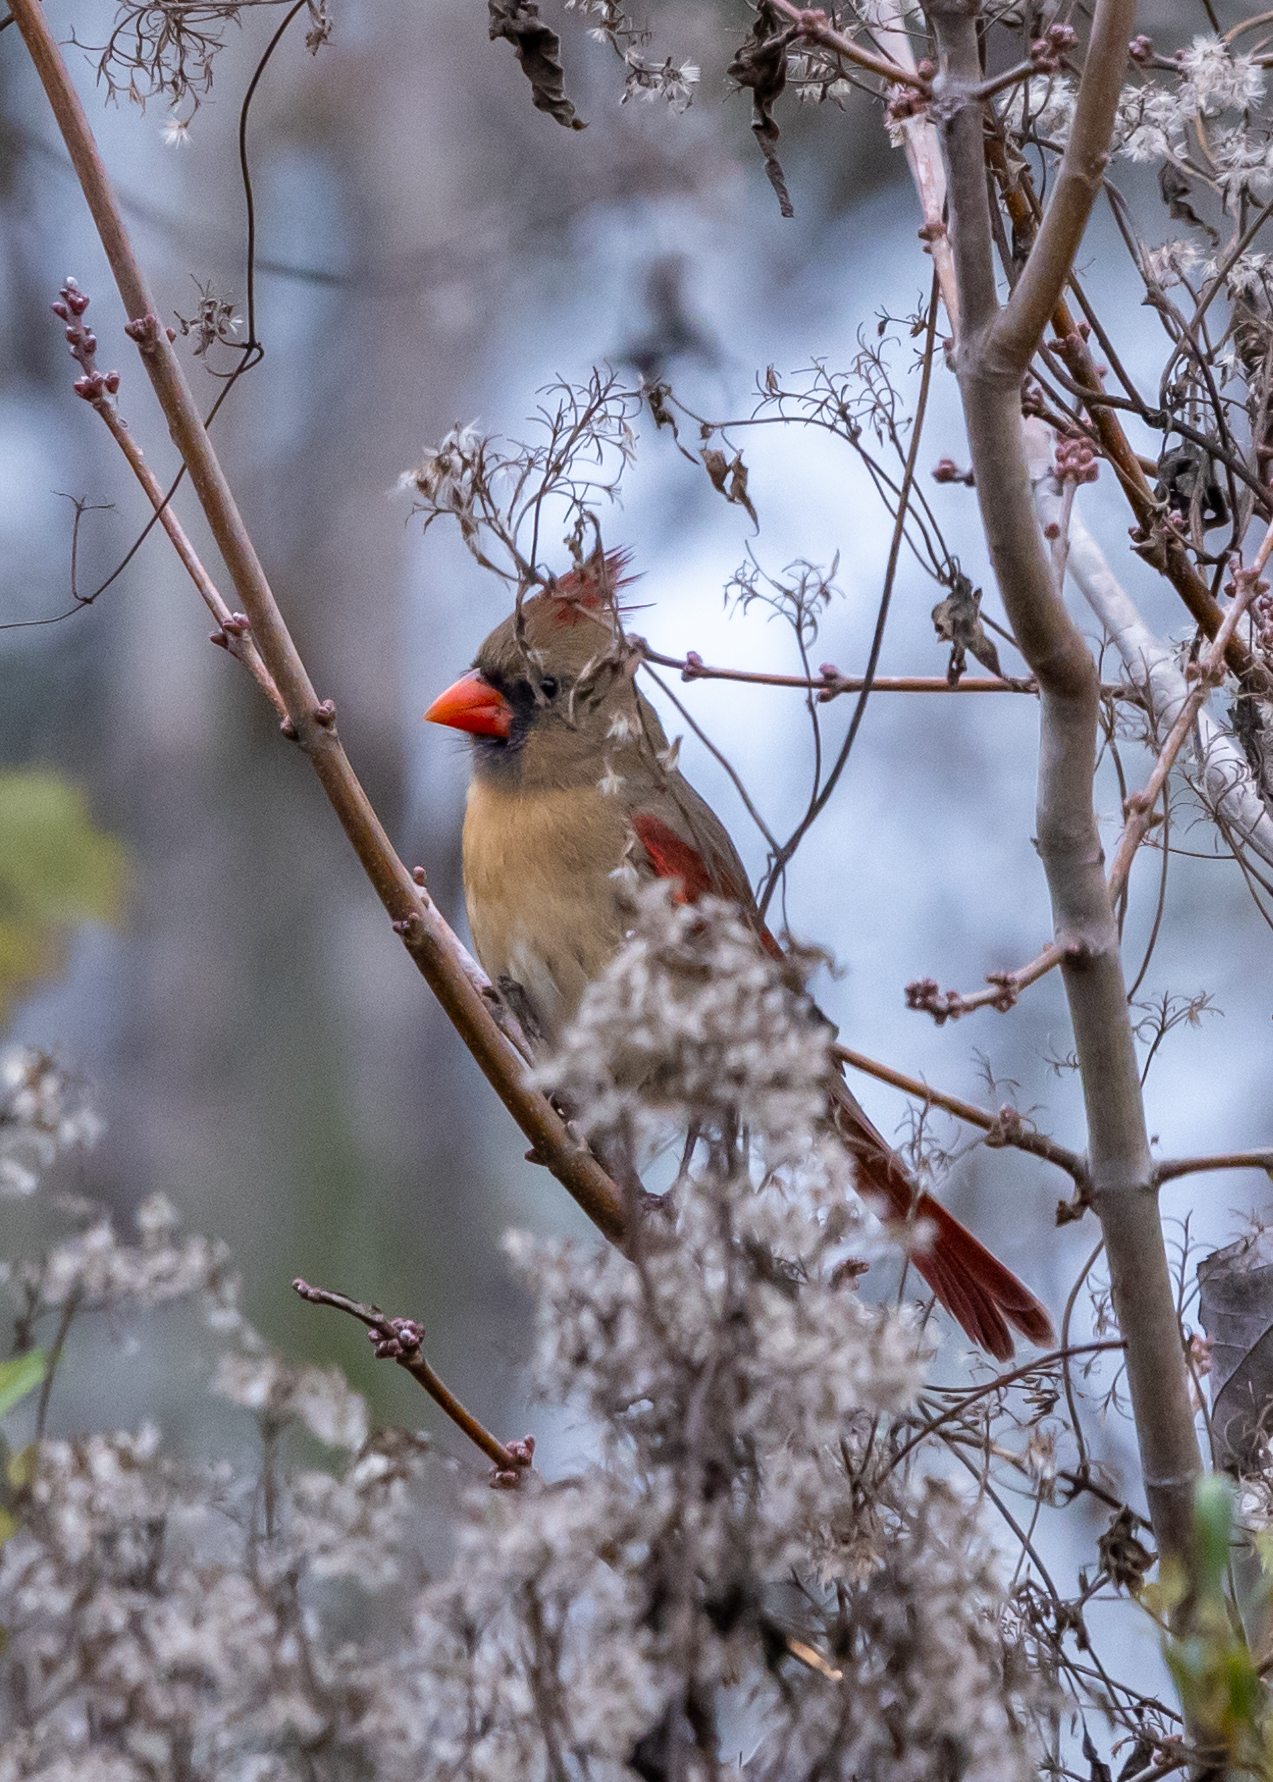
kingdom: Animalia
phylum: Chordata
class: Aves
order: Passeriformes
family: Cardinalidae
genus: Cardinalis
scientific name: Cardinalis cardinalis
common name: Northern cardinal
